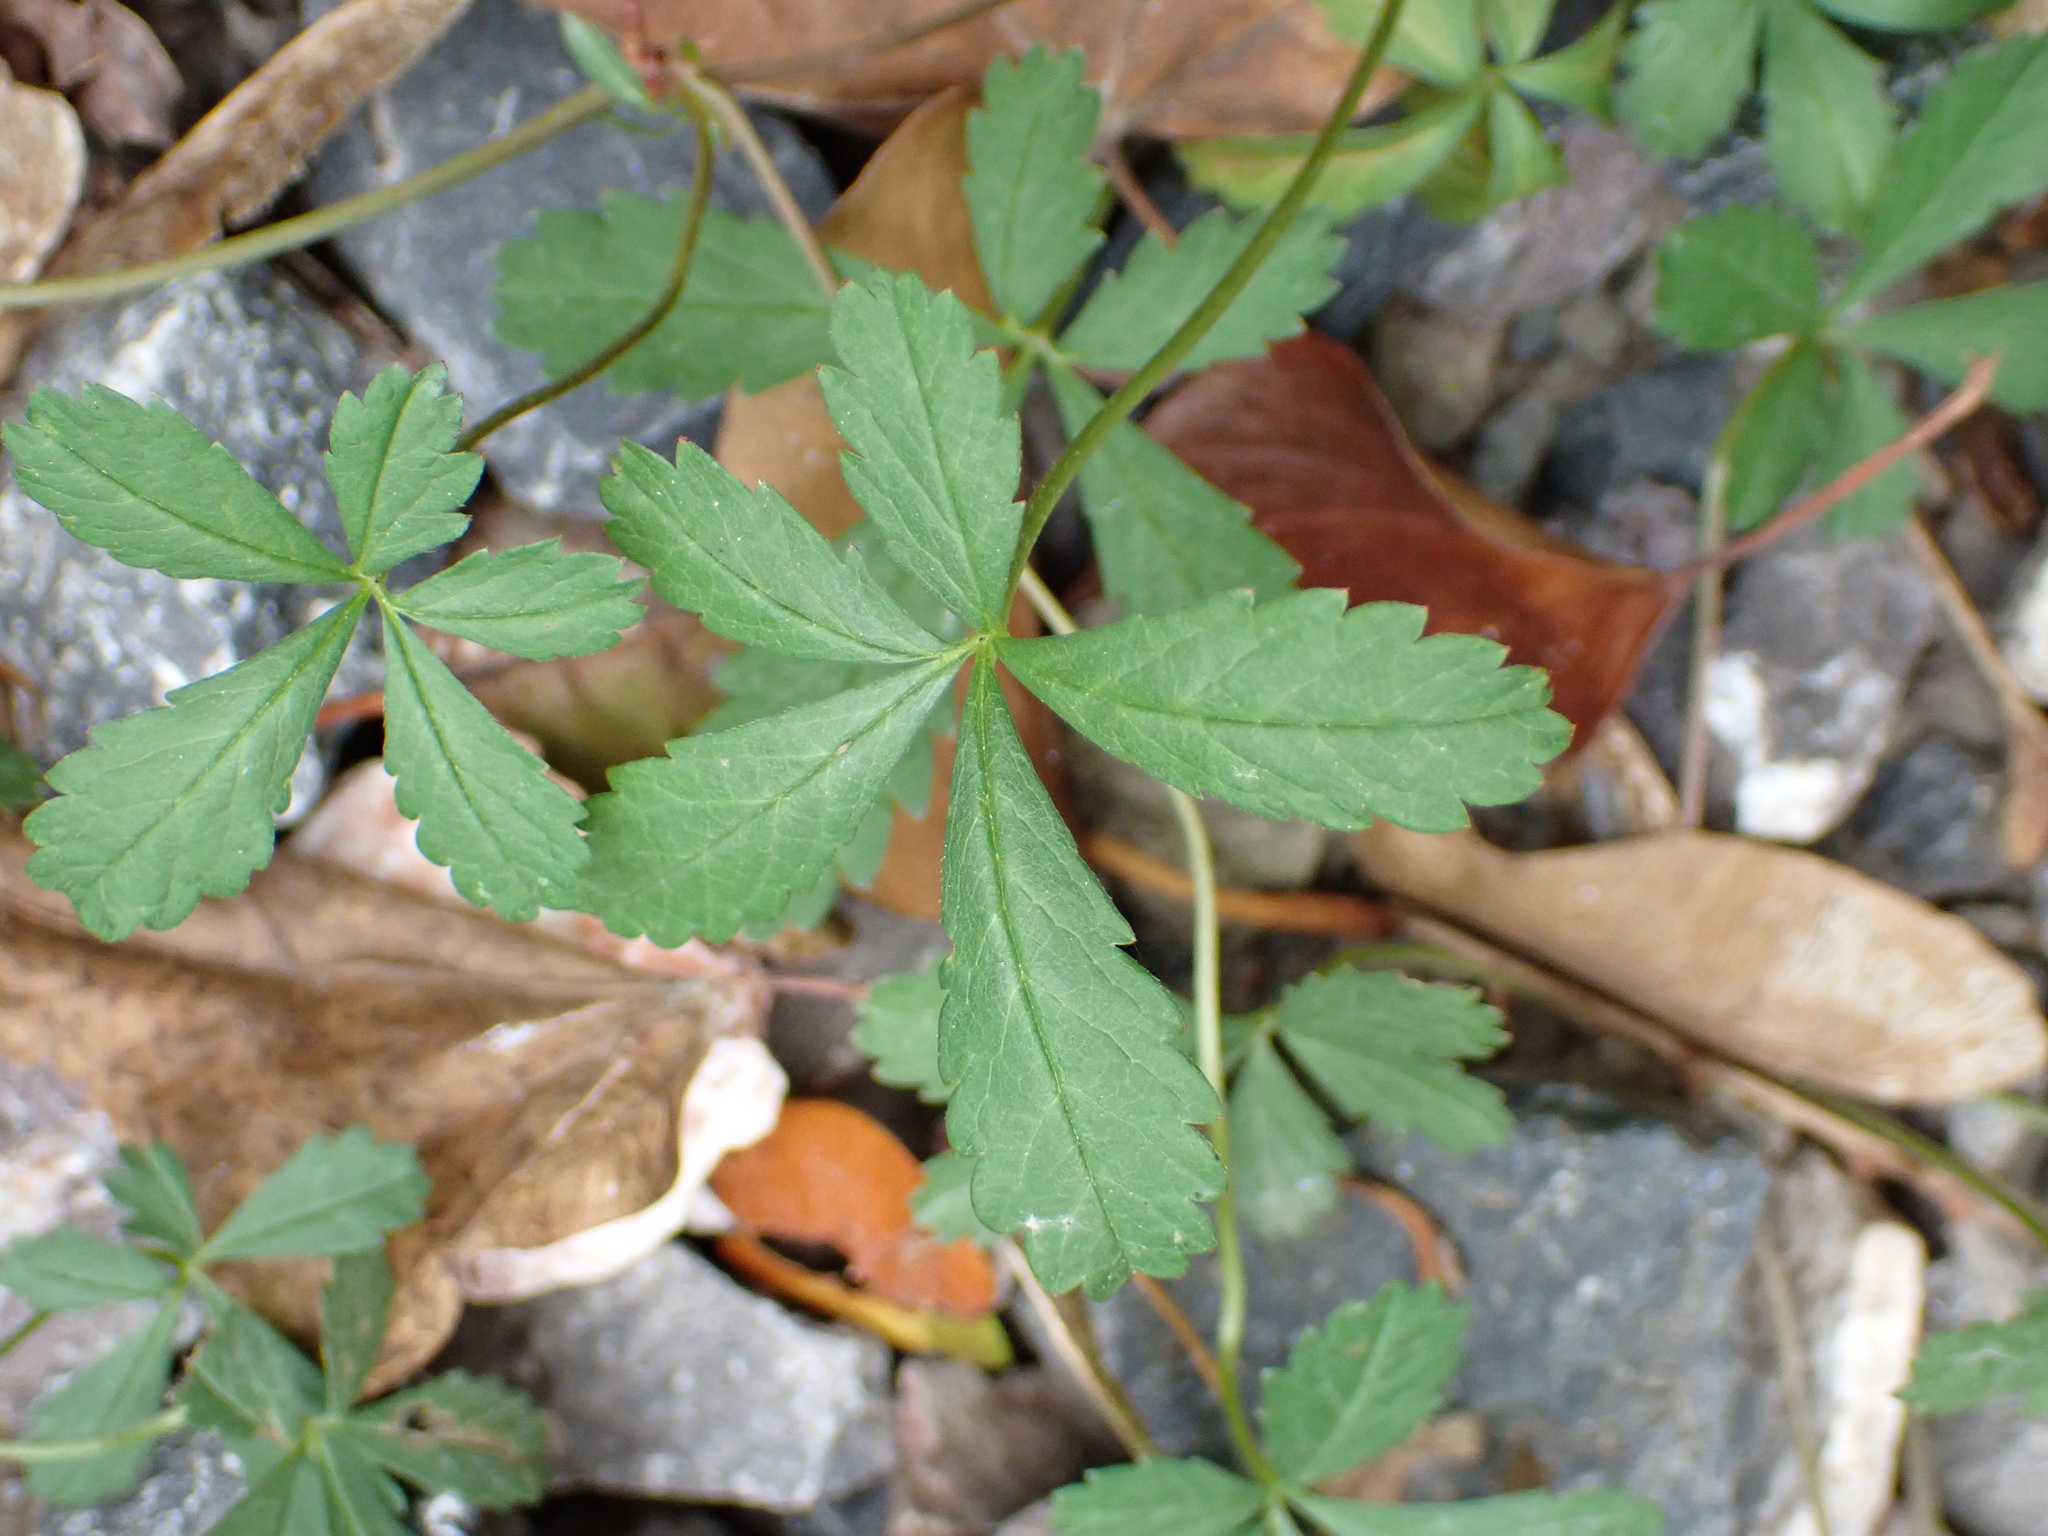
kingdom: Plantae
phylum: Tracheophyta
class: Magnoliopsida
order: Rosales
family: Rosaceae
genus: Potentilla
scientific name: Potentilla reptans
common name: Creeping cinquefoil
